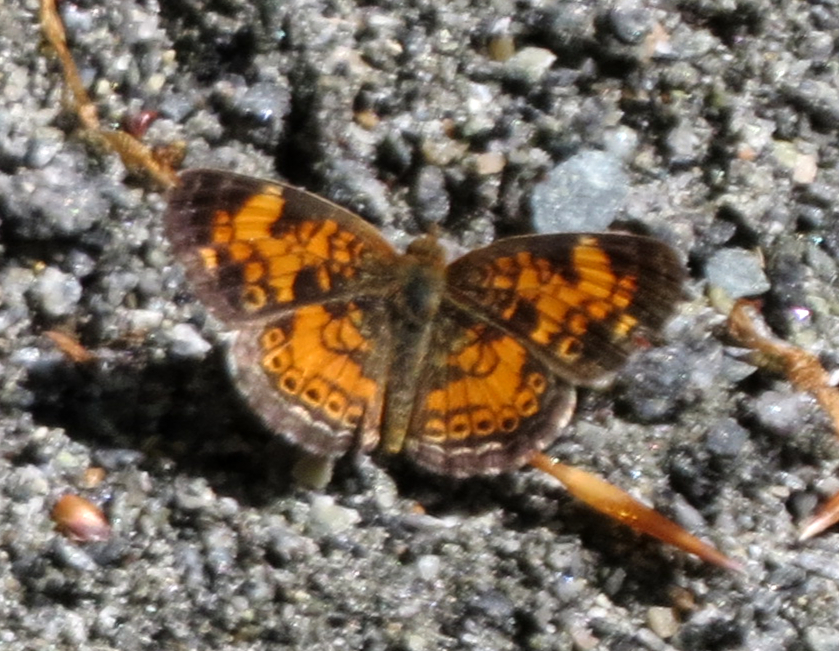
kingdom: Animalia
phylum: Arthropoda
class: Insecta
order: Lepidoptera
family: Nymphalidae
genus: Phyciodes
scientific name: Phyciodes tharos
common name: Pearl crescent
